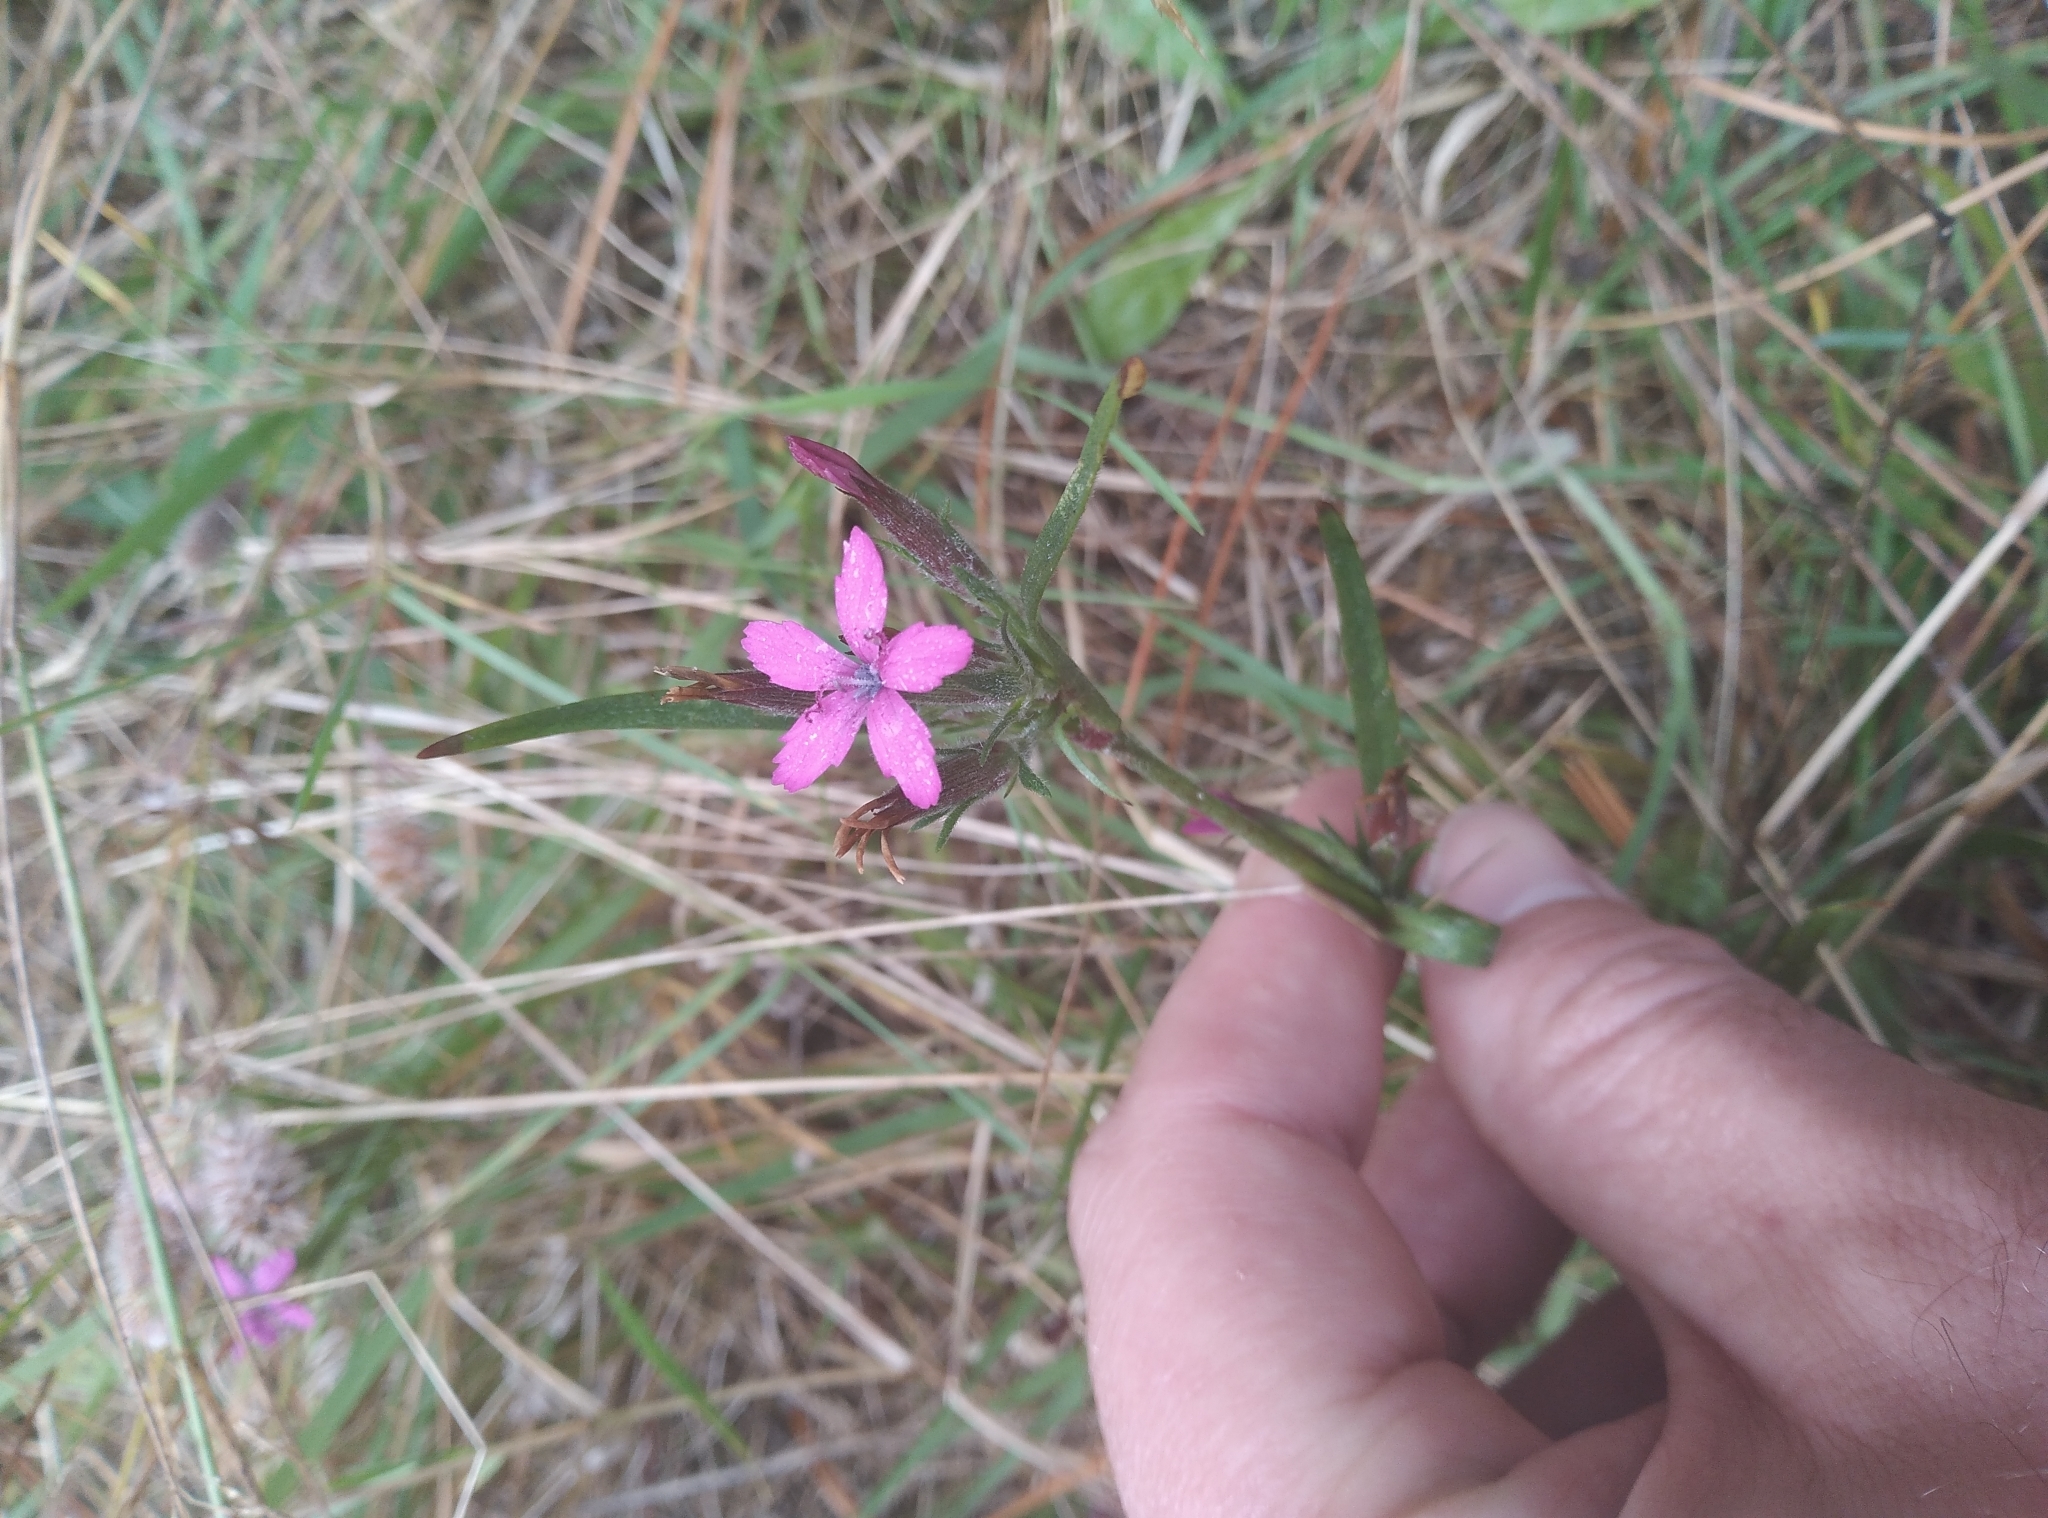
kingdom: Plantae
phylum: Tracheophyta
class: Magnoliopsida
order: Caryophyllales
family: Caryophyllaceae
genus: Dianthus
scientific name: Dianthus armeria
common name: Deptford pink
